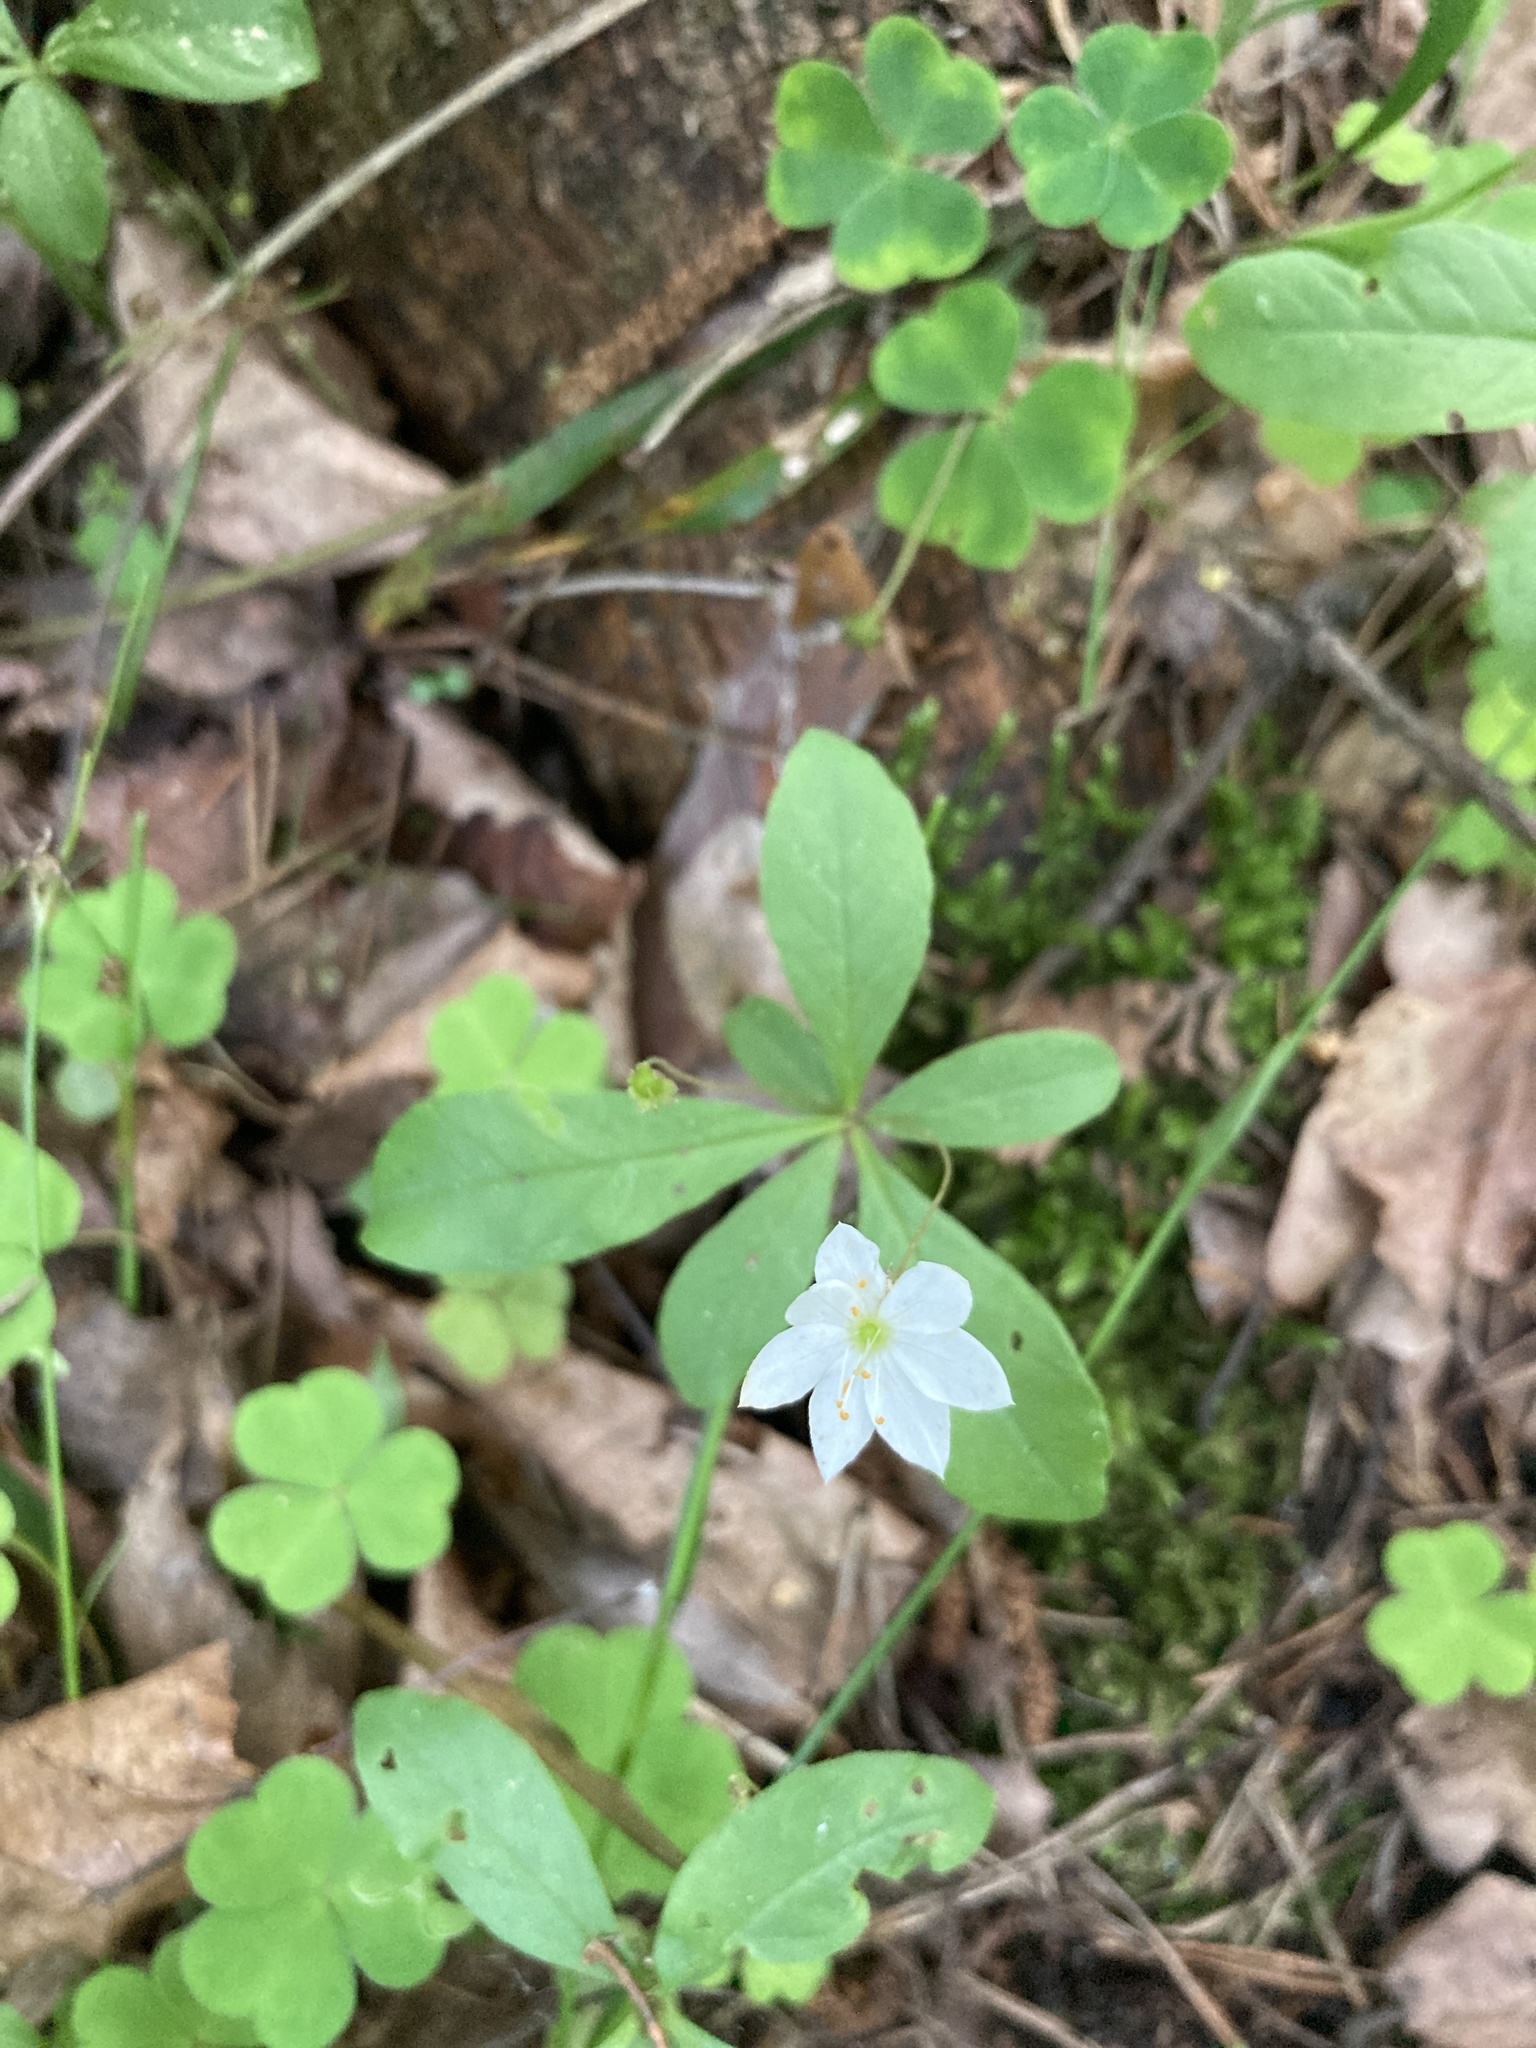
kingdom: Plantae
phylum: Tracheophyta
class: Magnoliopsida
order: Ericales
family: Primulaceae
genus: Lysimachia
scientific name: Lysimachia europaea
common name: Arctic starflower
